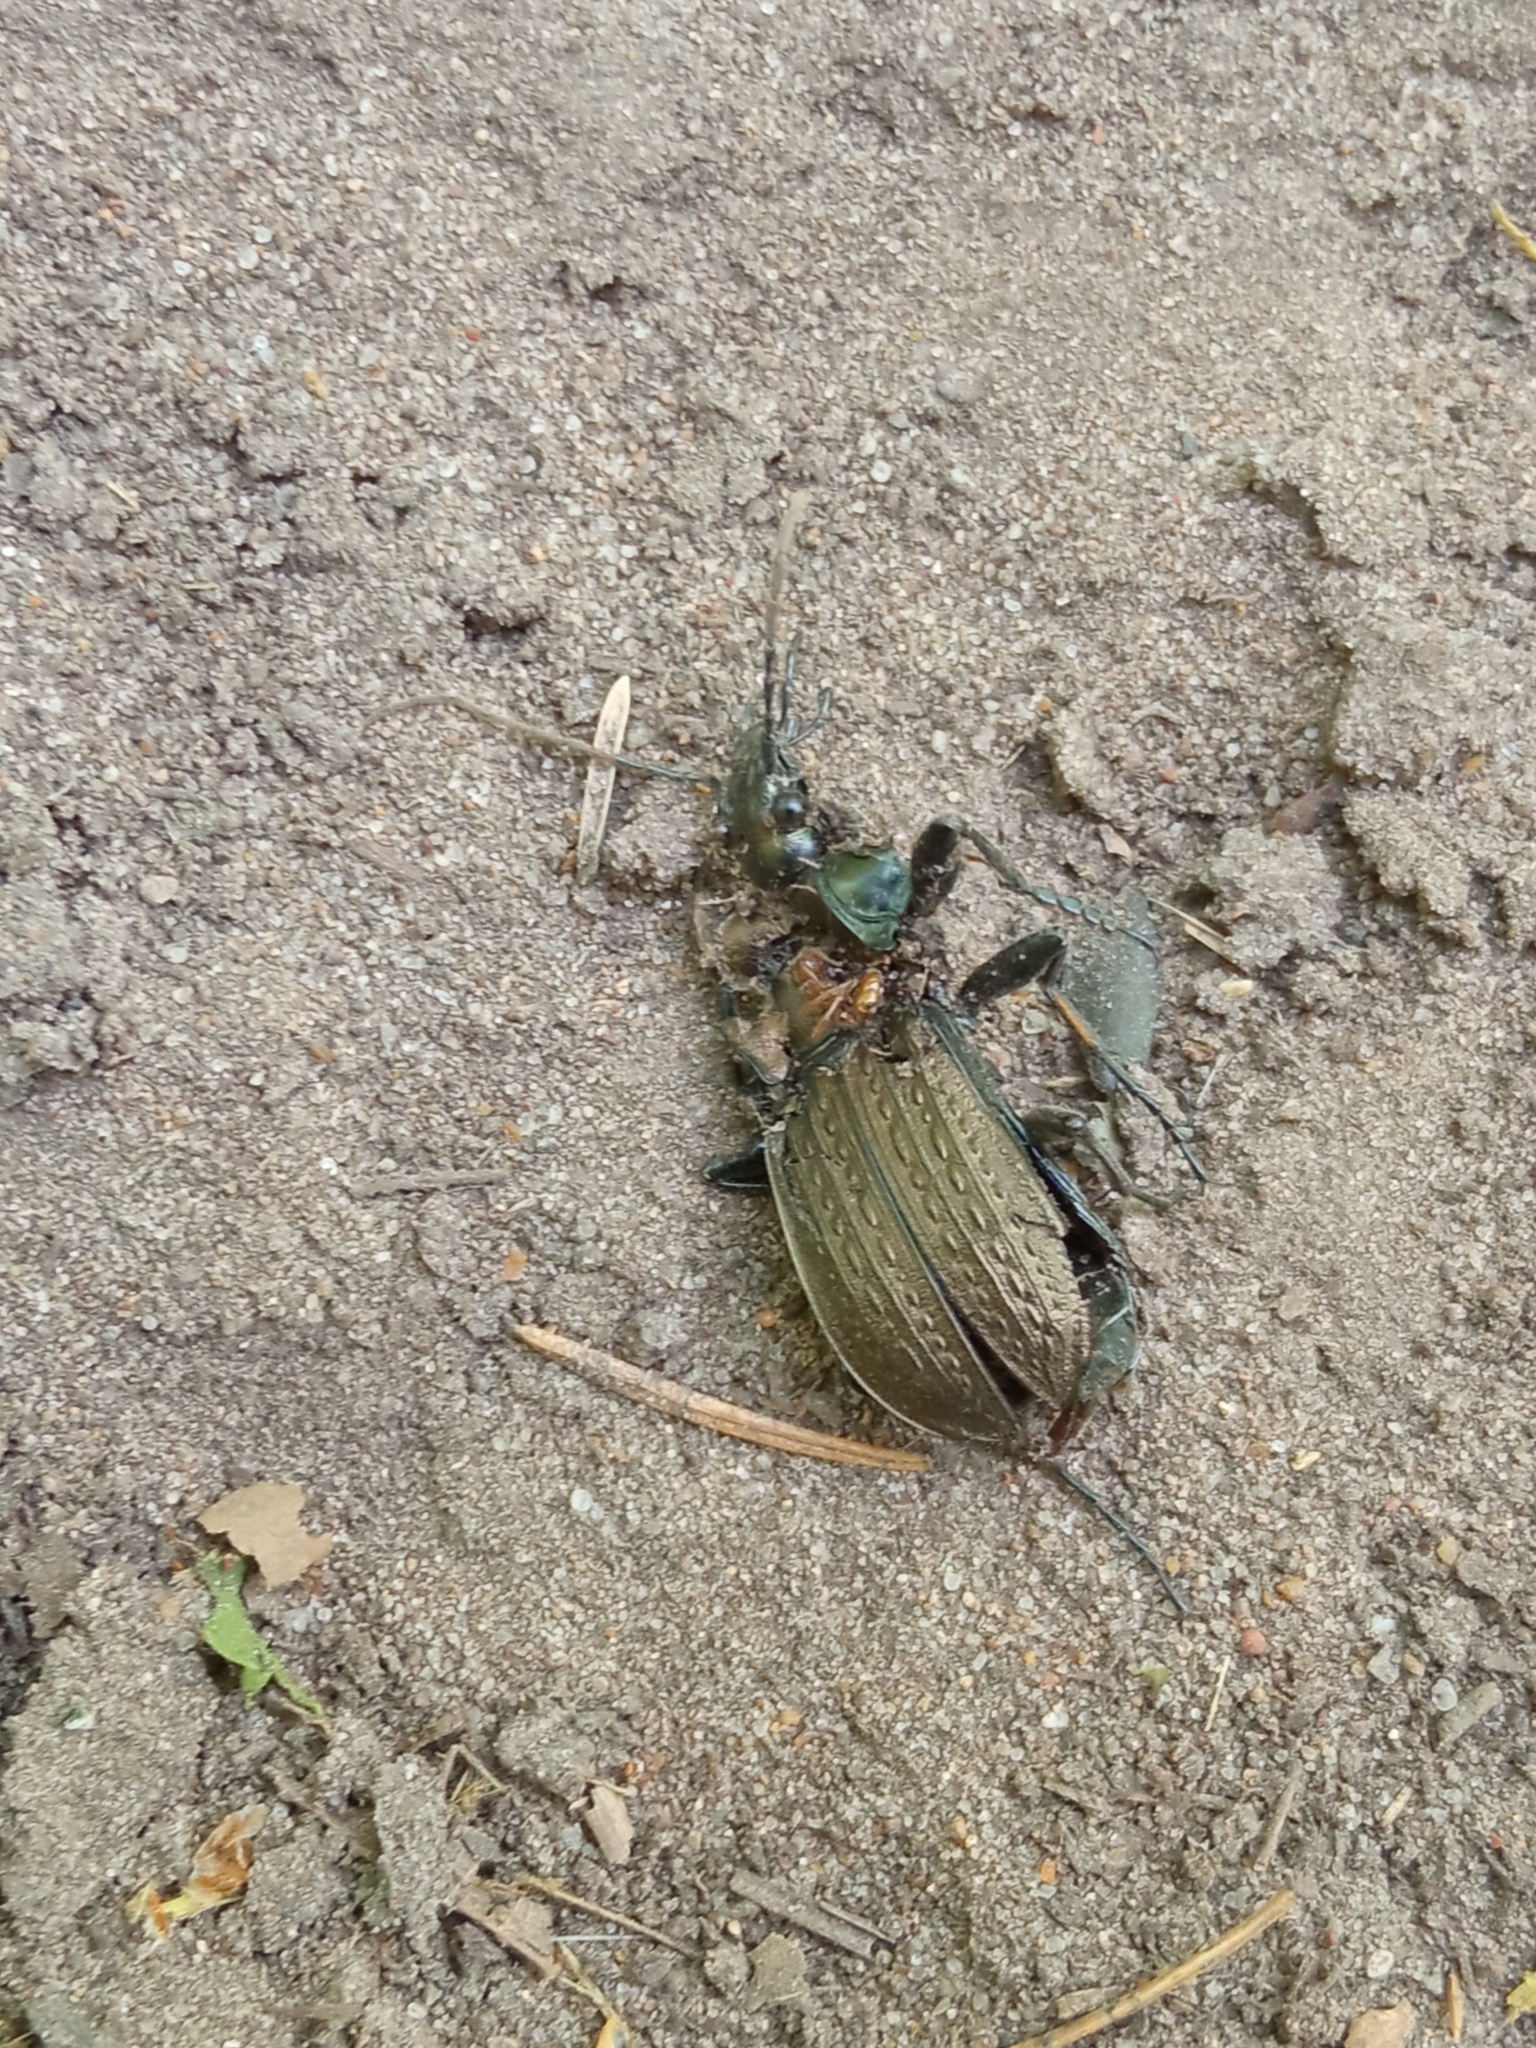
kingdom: Animalia
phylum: Arthropoda
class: Insecta
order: Coleoptera
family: Carabidae
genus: Carabus
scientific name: Carabus granulatus
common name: Granulate ground beetle
